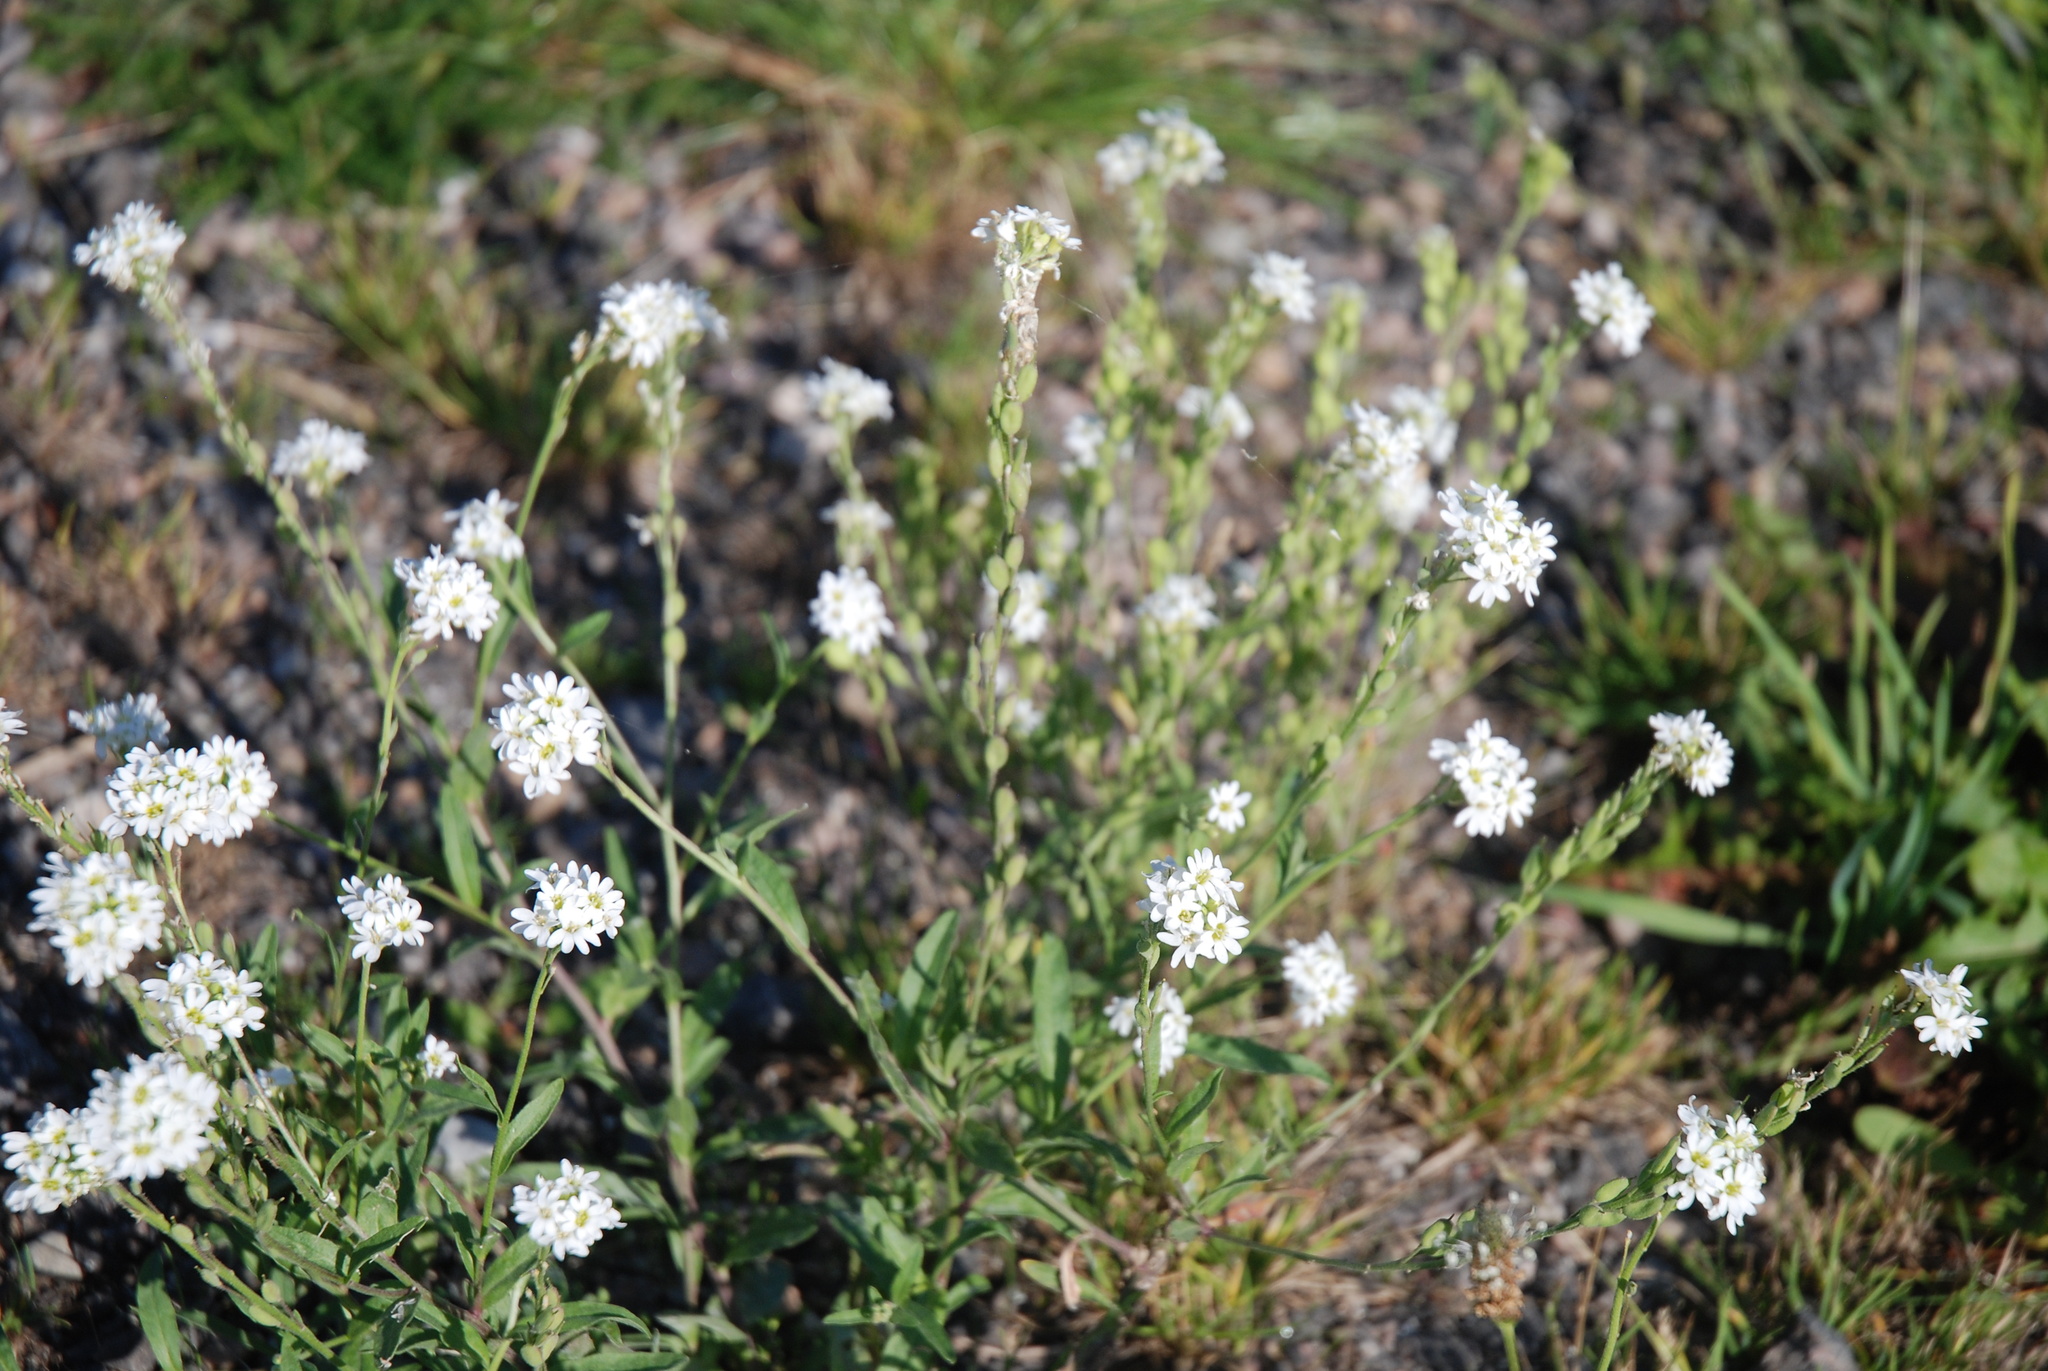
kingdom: Plantae
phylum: Tracheophyta
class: Magnoliopsida
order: Brassicales
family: Brassicaceae
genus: Berteroa
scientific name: Berteroa incana
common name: Hoary alison
